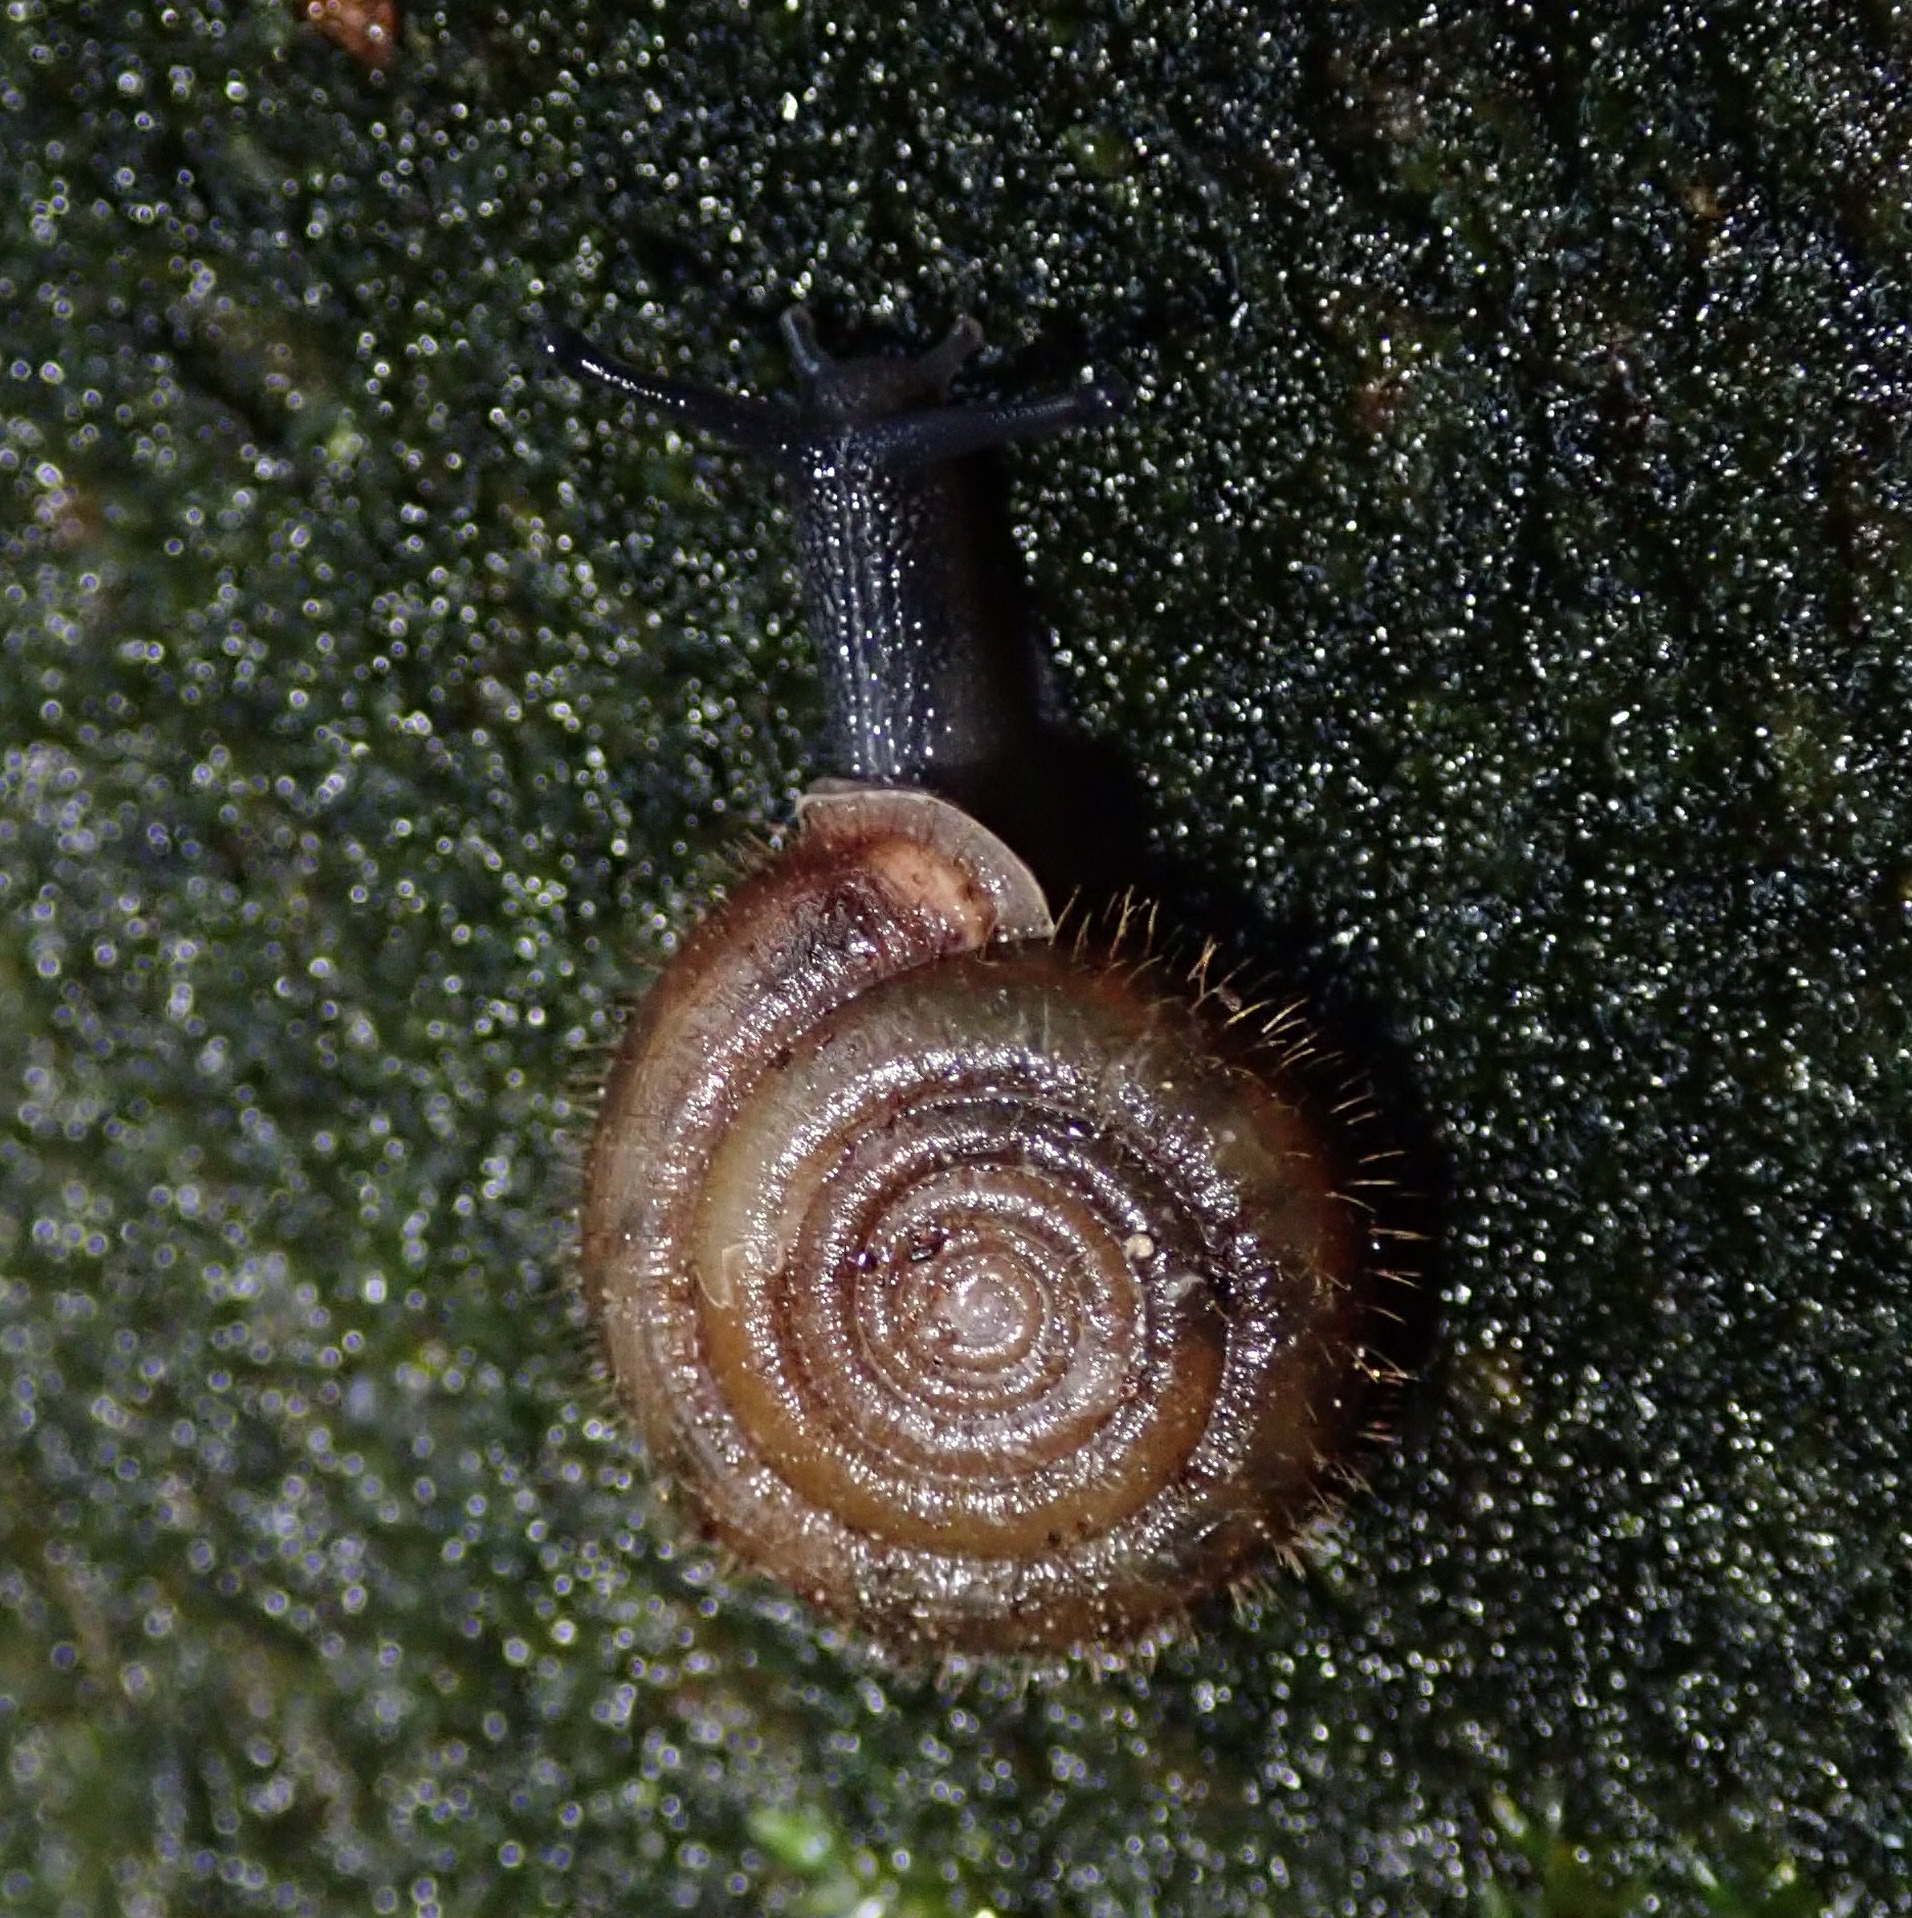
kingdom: Animalia
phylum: Mollusca
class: Gastropoda
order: Stylommatophora
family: Helicodontidae
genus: Helicodonta
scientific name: Helicodonta obvoluta
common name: Cheese snail
